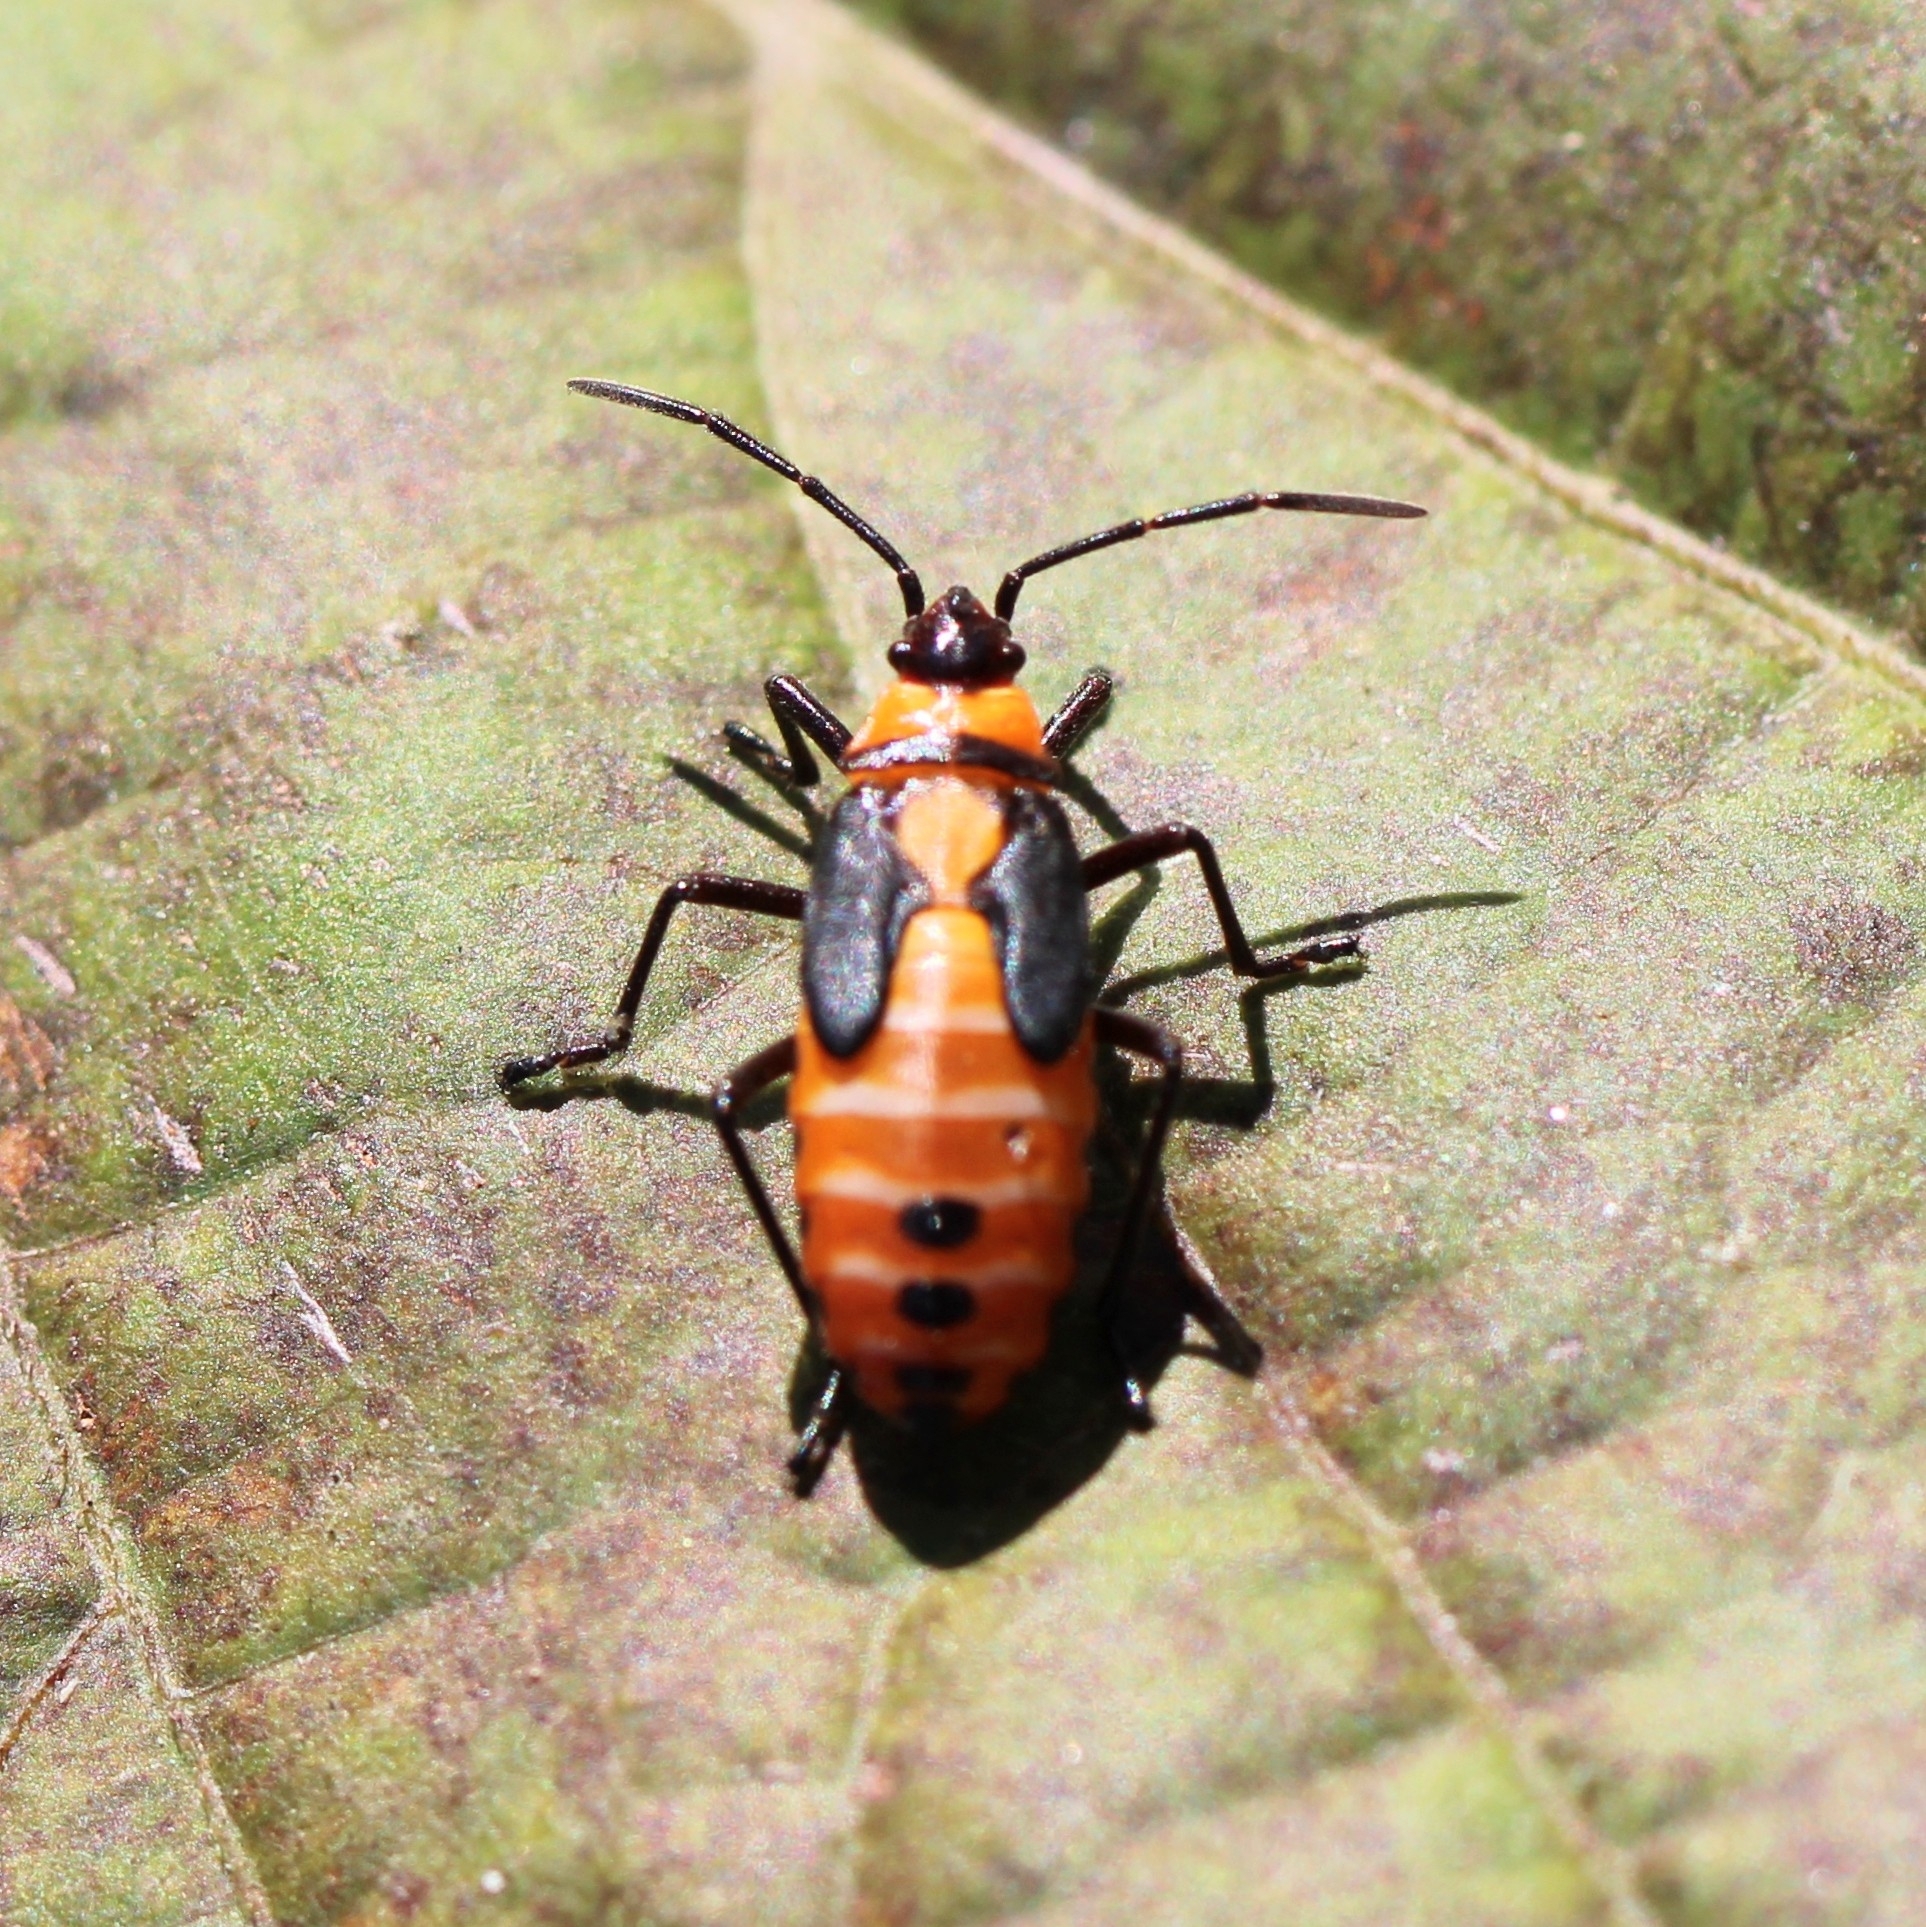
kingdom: Animalia
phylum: Arthropoda
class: Insecta
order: Hemiptera
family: Lygaeidae
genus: Oncopeltus
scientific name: Oncopeltus fasciatus
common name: Large milkweed bug
